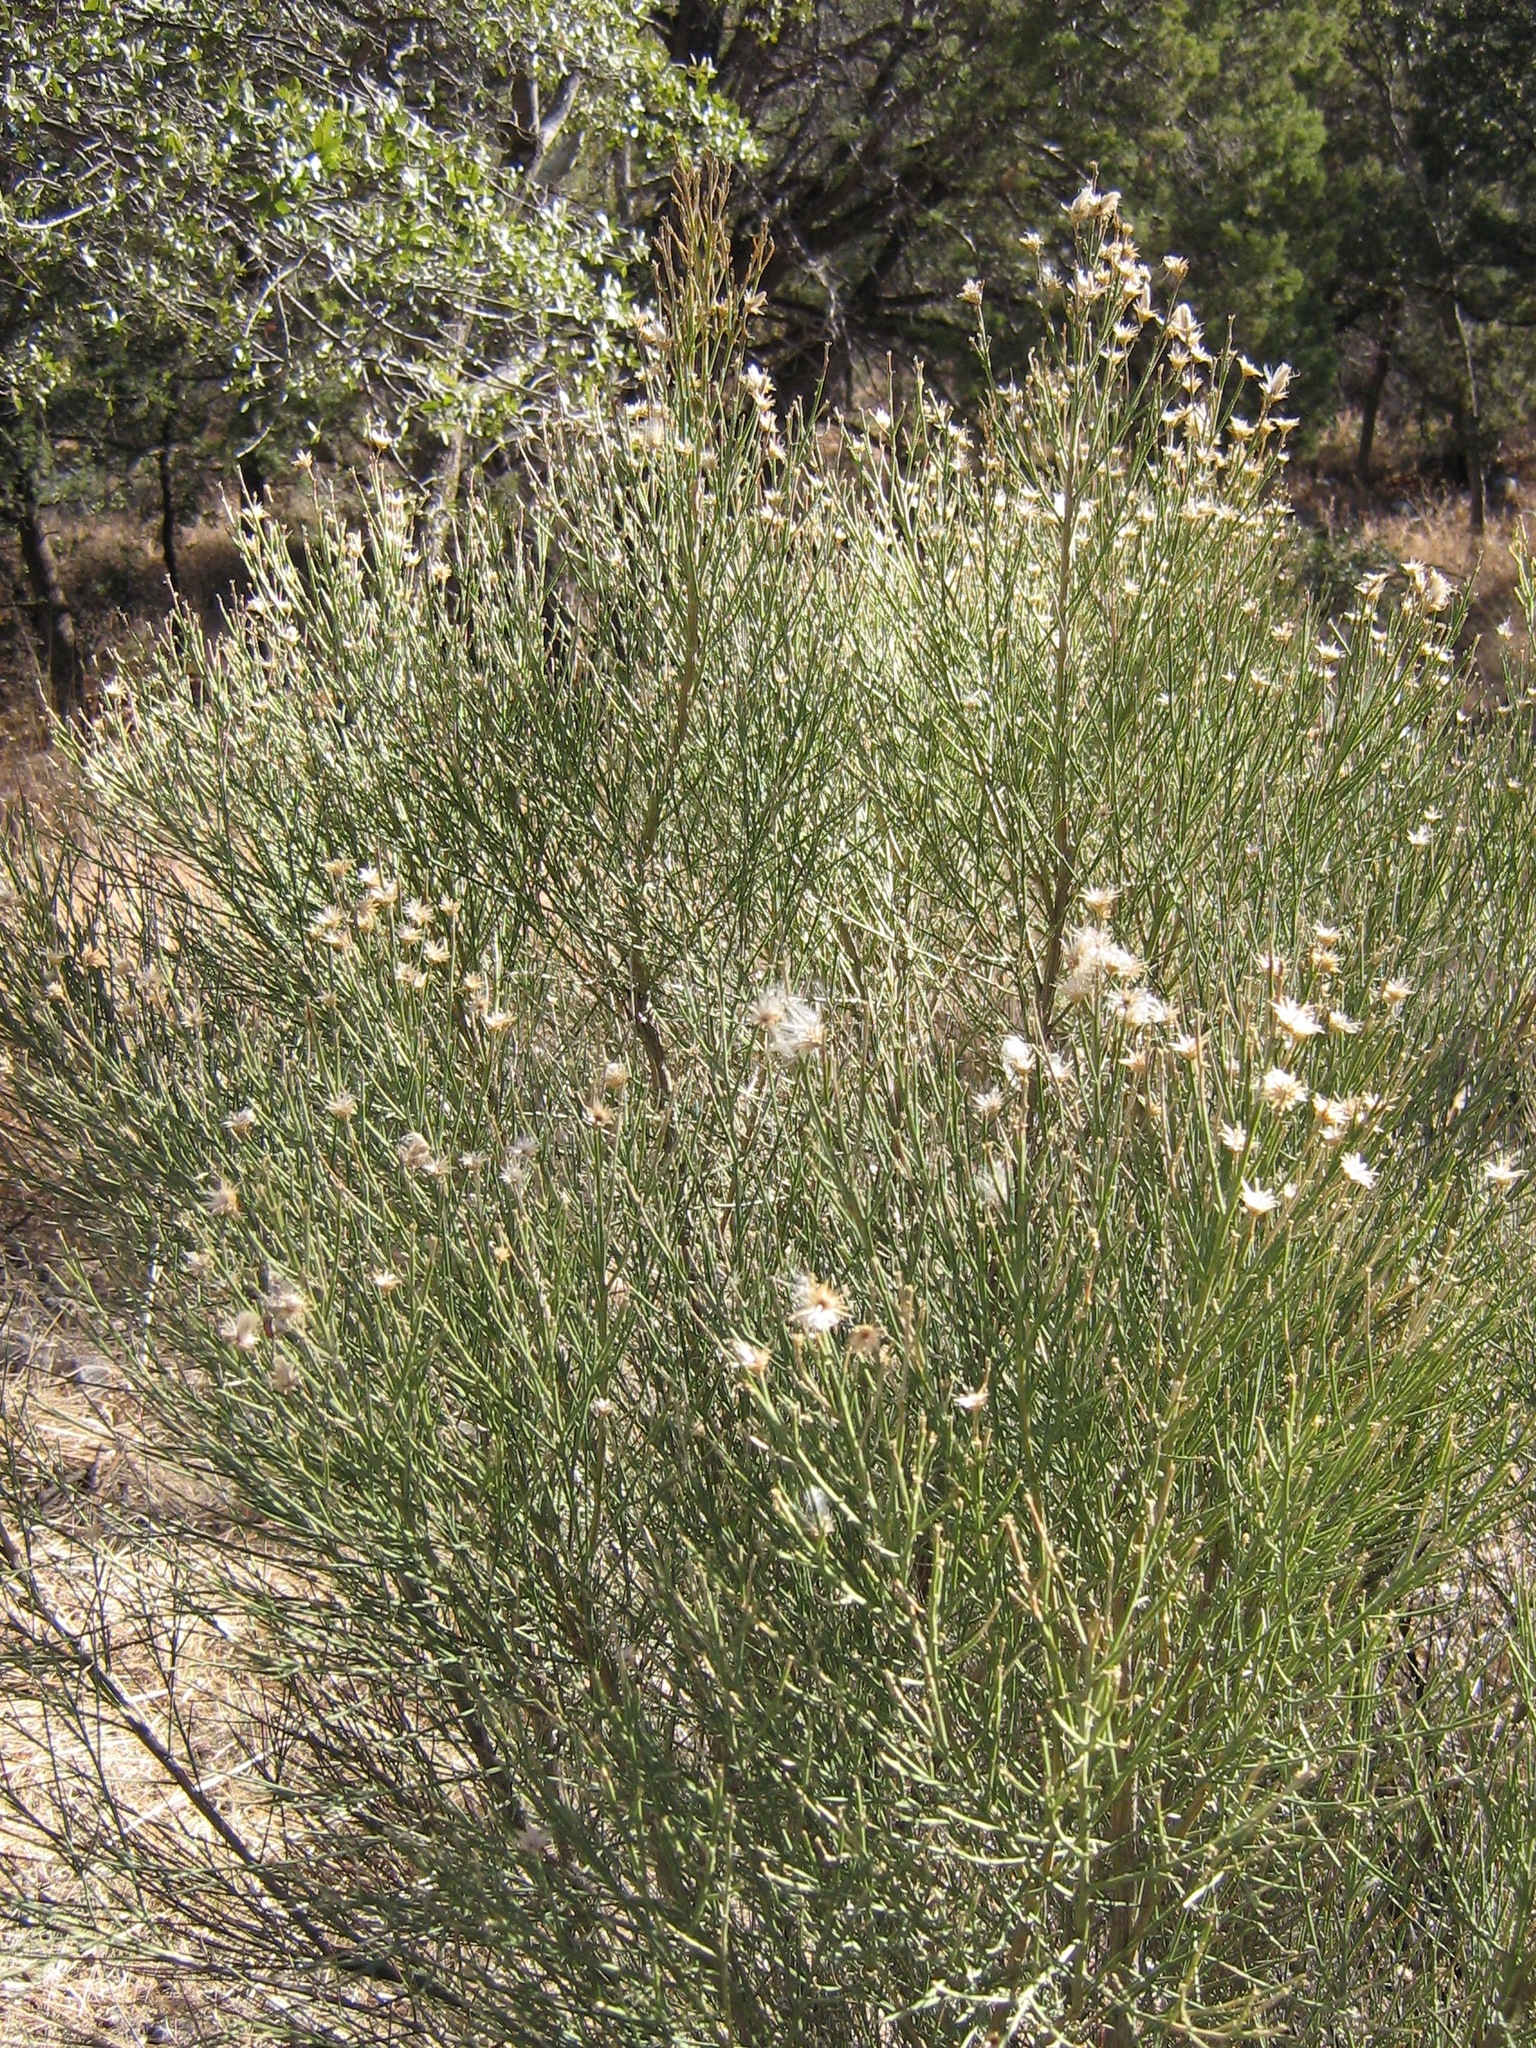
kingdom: Plantae
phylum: Tracheophyta
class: Magnoliopsida
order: Asterales
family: Asteraceae
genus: Baccharis
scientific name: Baccharis sarothroides
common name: Desert-broom
